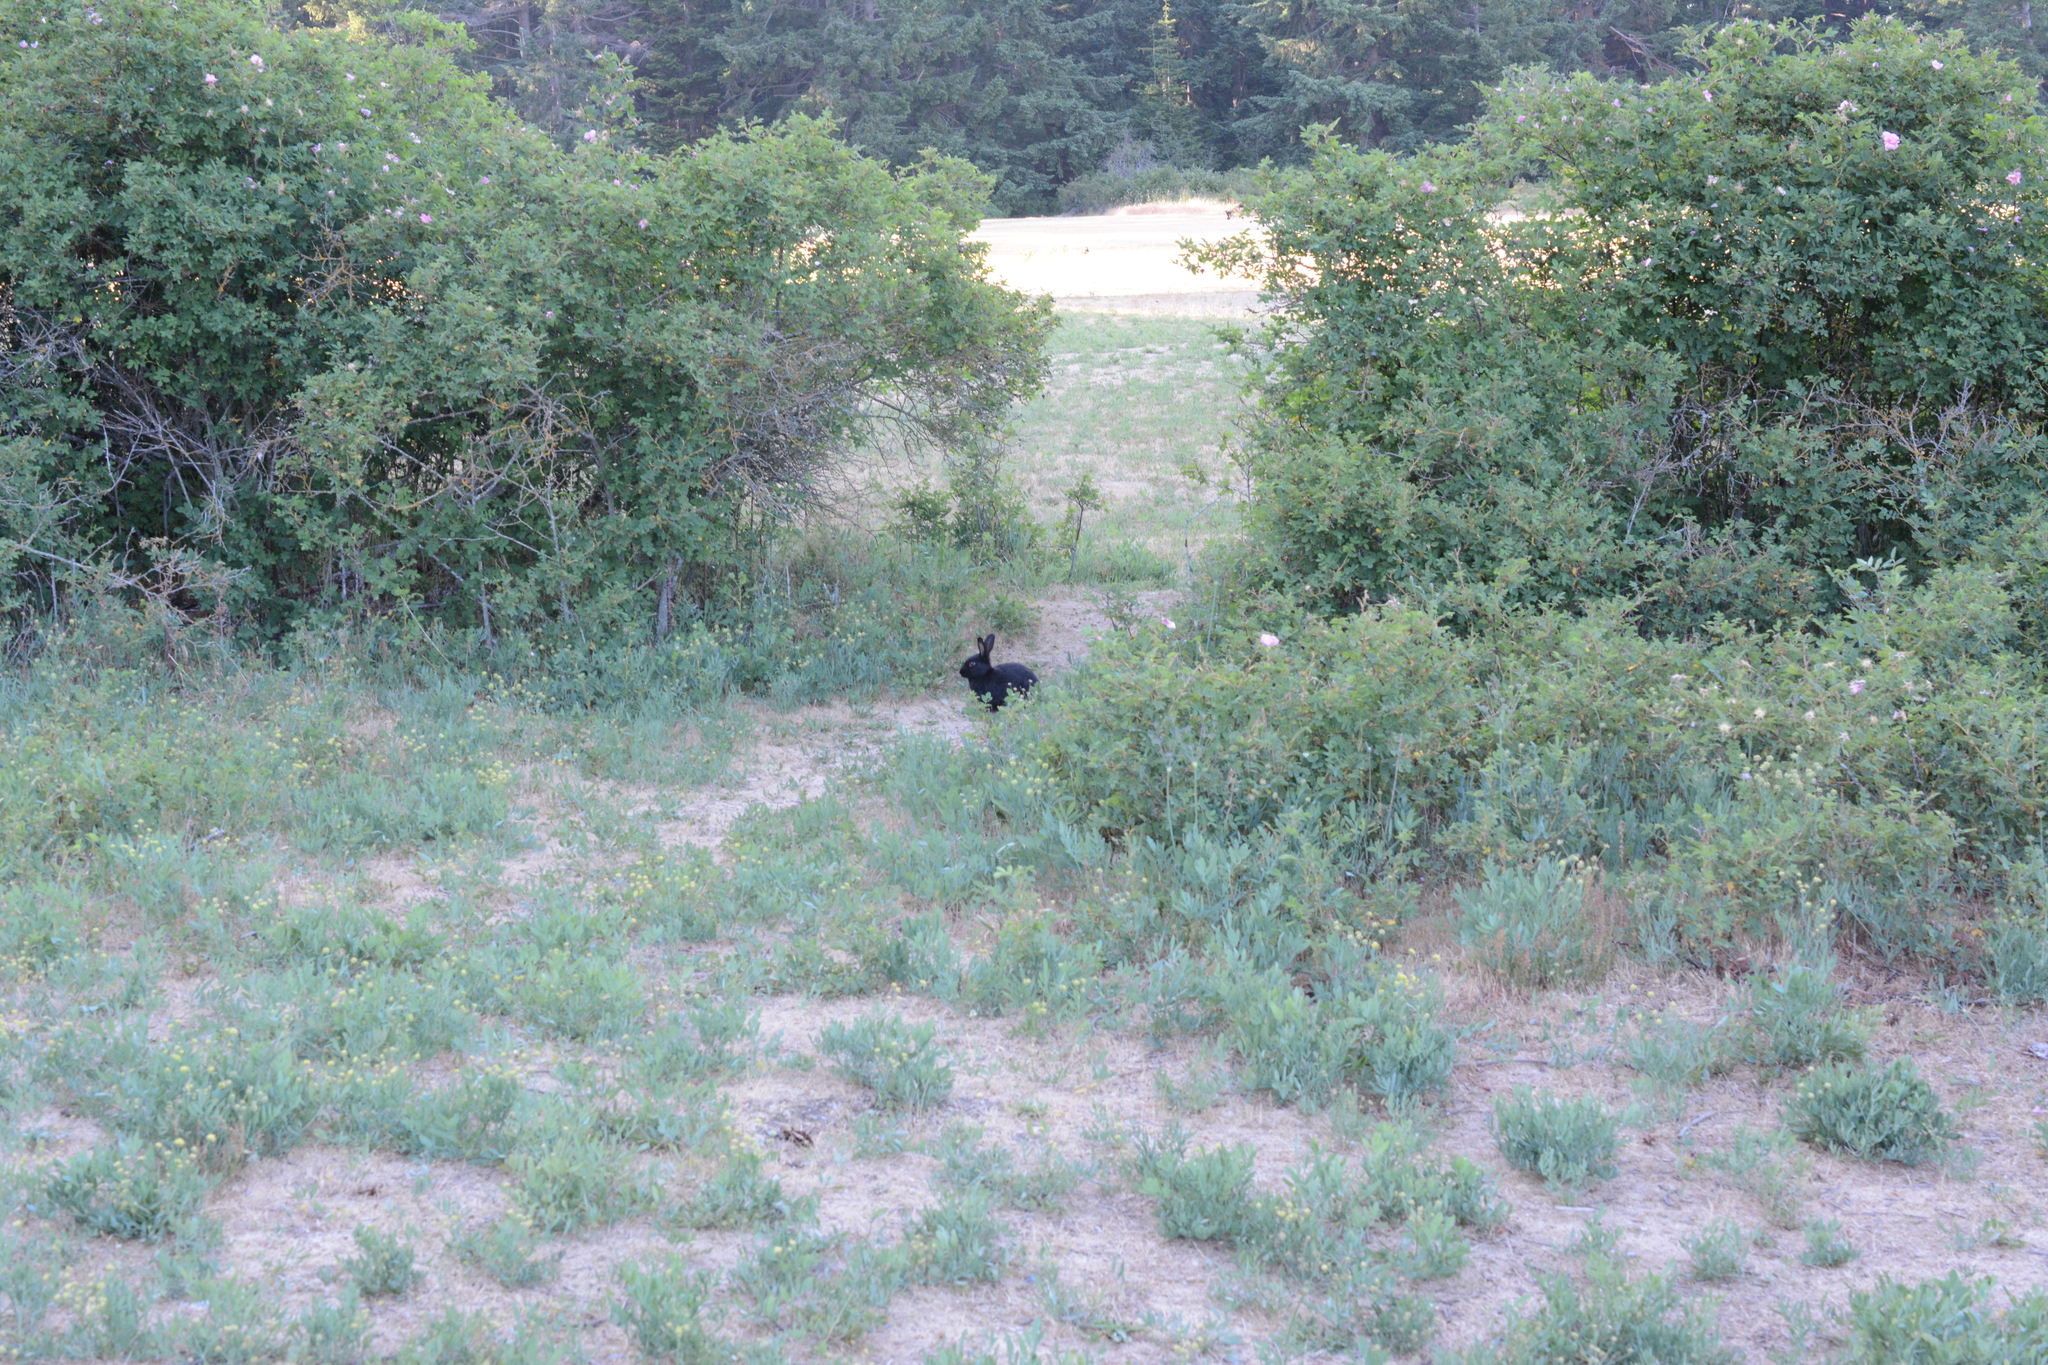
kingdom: Animalia
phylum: Chordata
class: Mammalia
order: Lagomorpha
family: Leporidae
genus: Oryctolagus
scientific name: Oryctolagus cuniculus
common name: European rabbit
